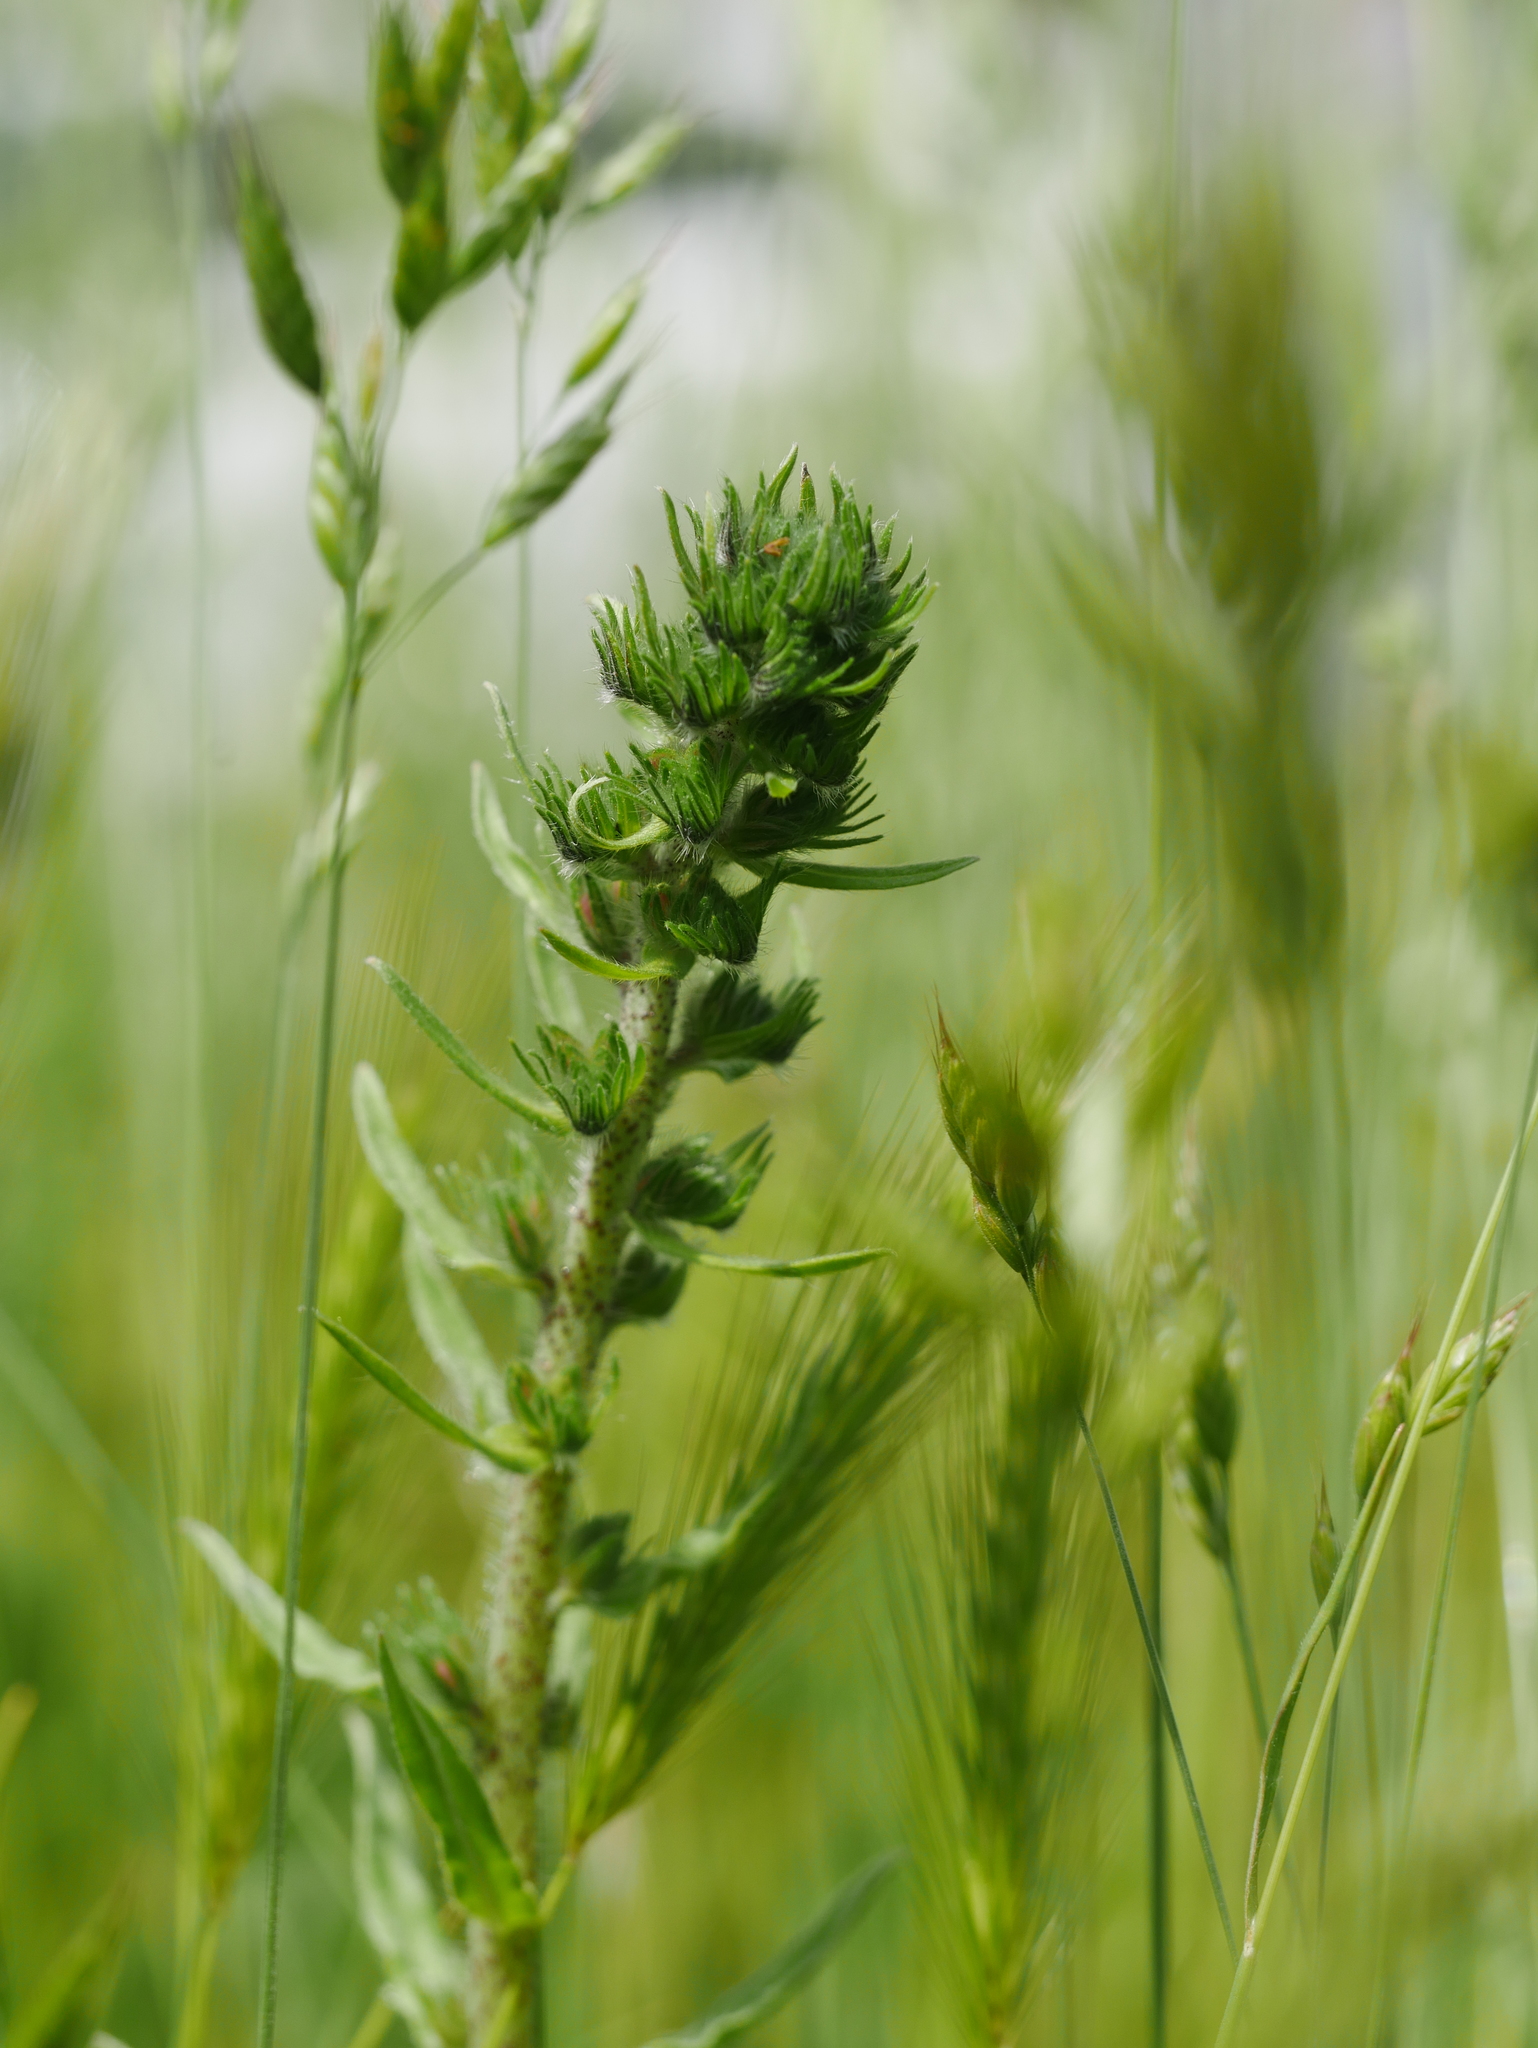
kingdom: Plantae
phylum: Tracheophyta
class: Magnoliopsida
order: Boraginales
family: Boraginaceae
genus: Echium
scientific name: Echium vulgare
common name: Common viper's bugloss
